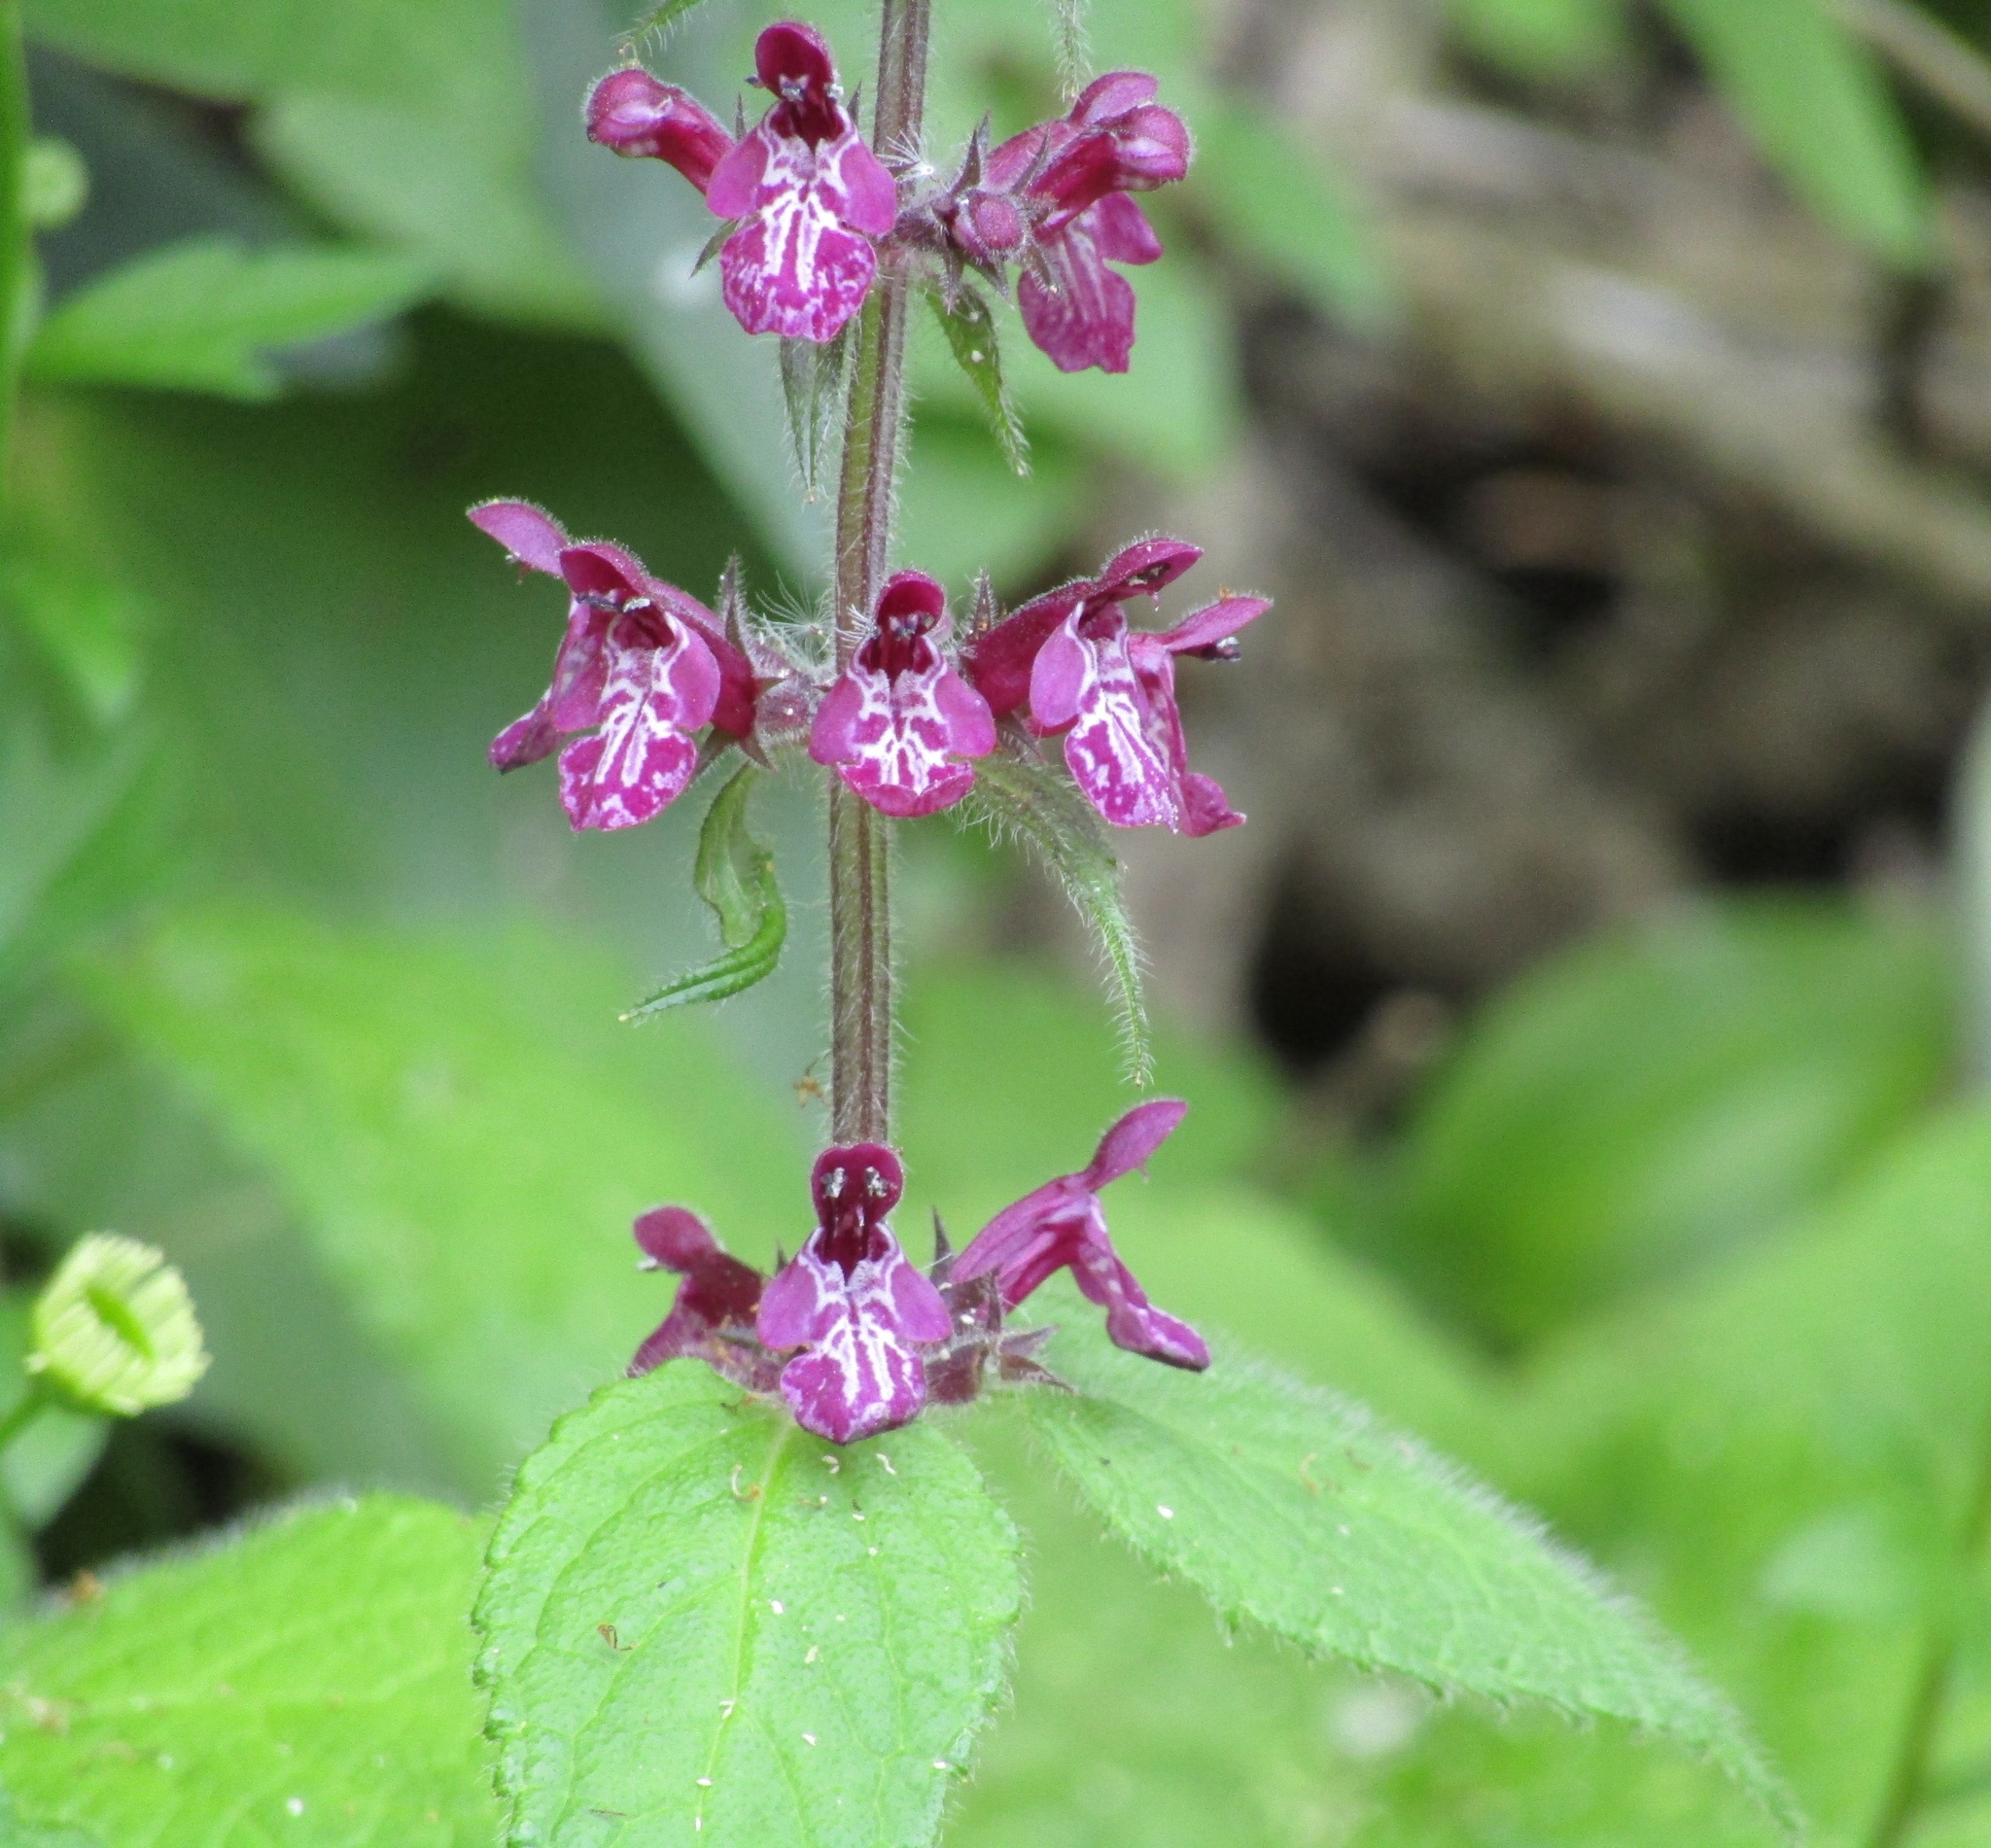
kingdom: Plantae
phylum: Tracheophyta
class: Magnoliopsida
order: Lamiales
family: Lamiaceae
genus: Stachys
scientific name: Stachys sylvatica
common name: Hedge woundwort
